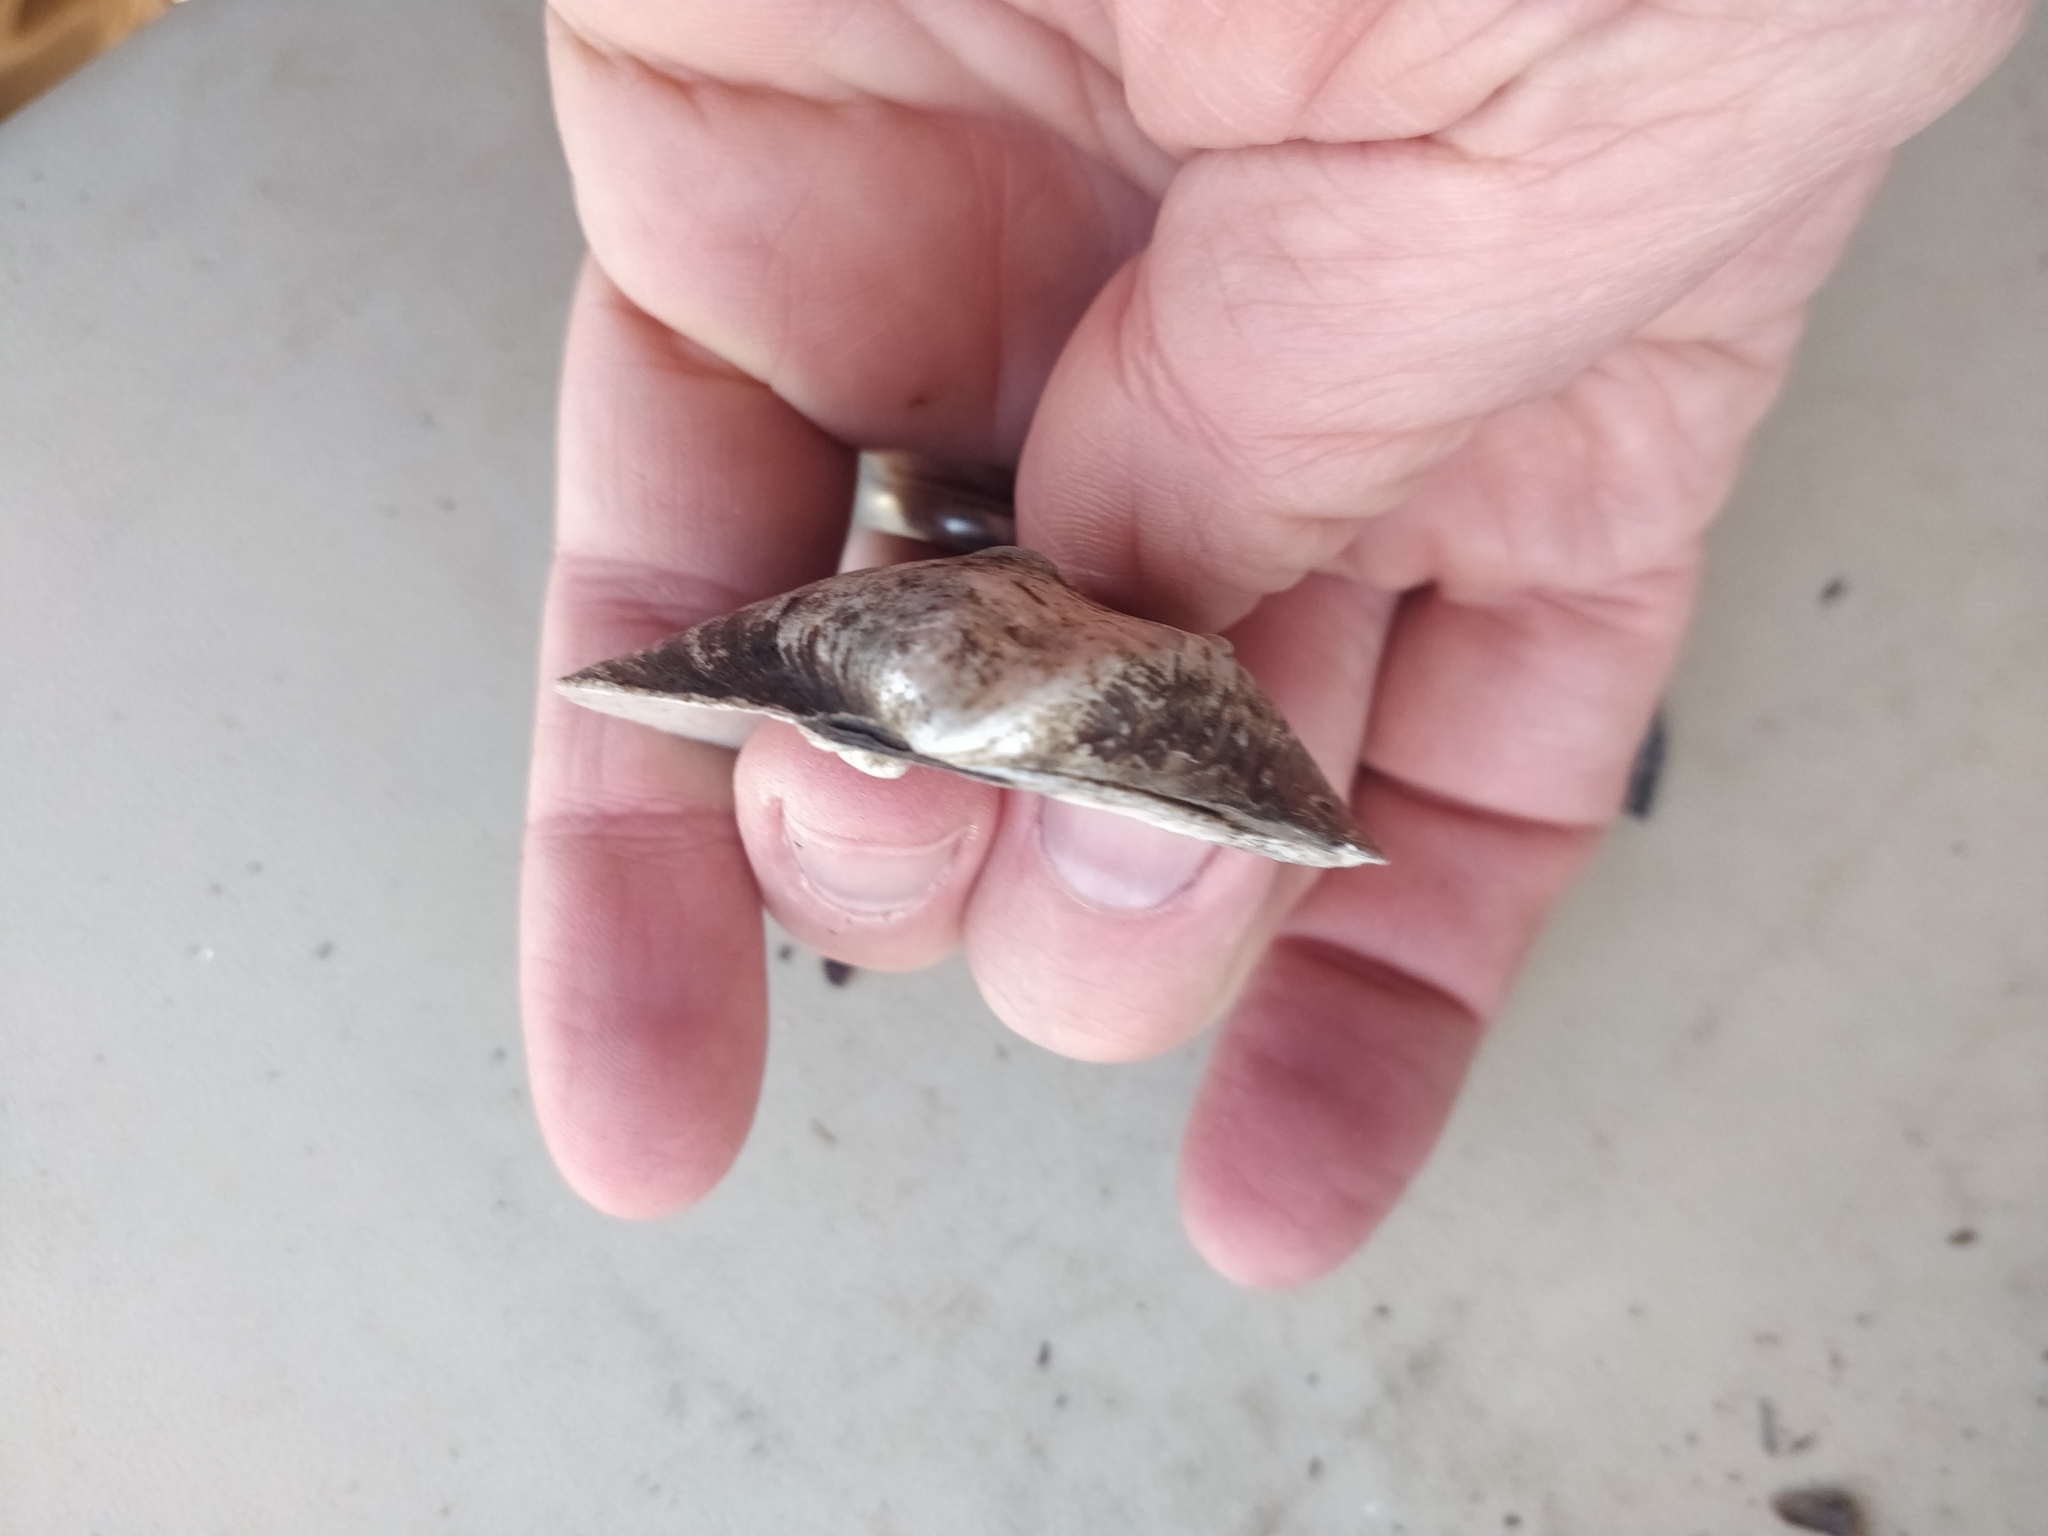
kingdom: Animalia
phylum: Mollusca
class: Bivalvia
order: Unionida
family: Unionidae
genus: Quadrula
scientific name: Quadrula quadrula
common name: Mapleleaf
